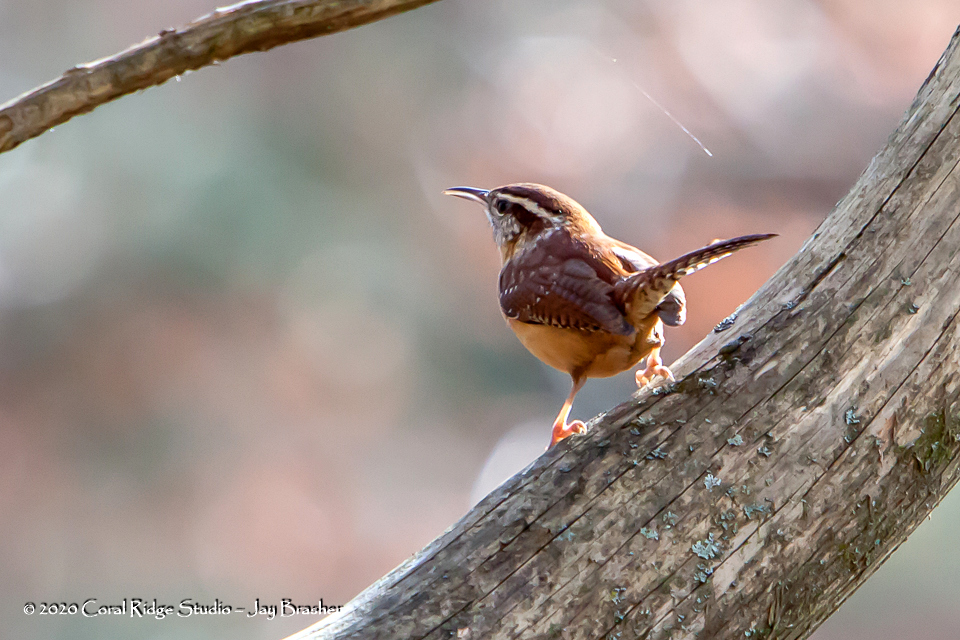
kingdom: Animalia
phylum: Chordata
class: Aves
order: Passeriformes
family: Troglodytidae
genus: Thryothorus
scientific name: Thryothorus ludovicianus
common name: Carolina wren
